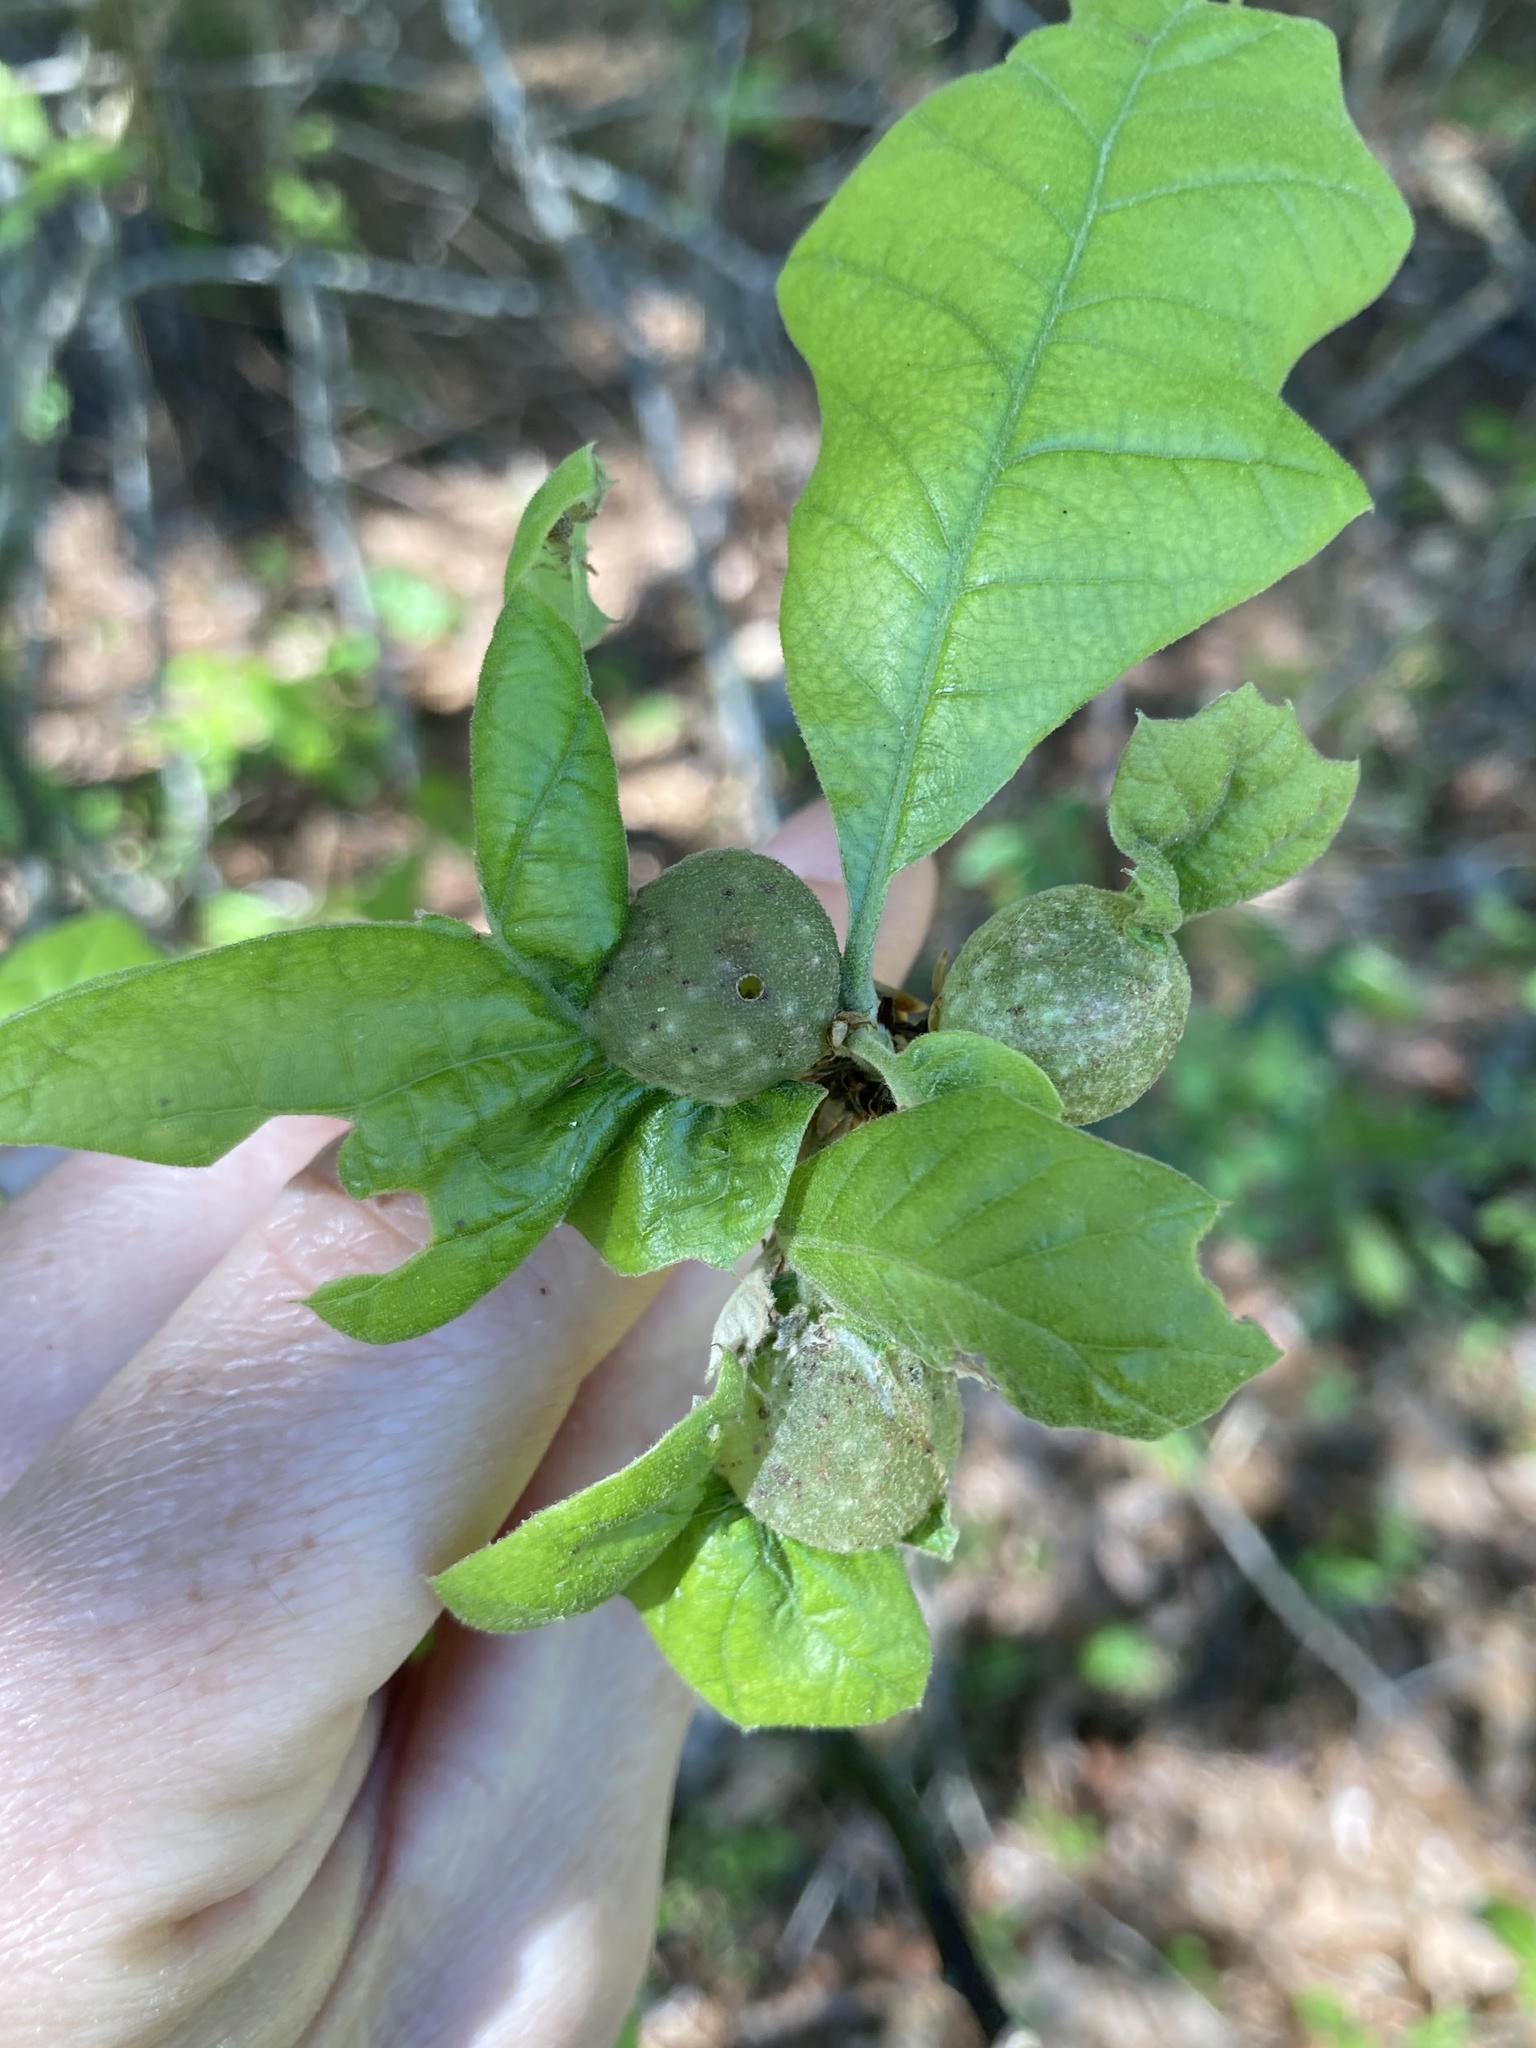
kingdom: Animalia
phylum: Arthropoda
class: Insecta
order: Hymenoptera
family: Cynipidae
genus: Dryocosmus
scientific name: Dryocosmus quercuspalustris
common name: Succulent oak gall wasp
